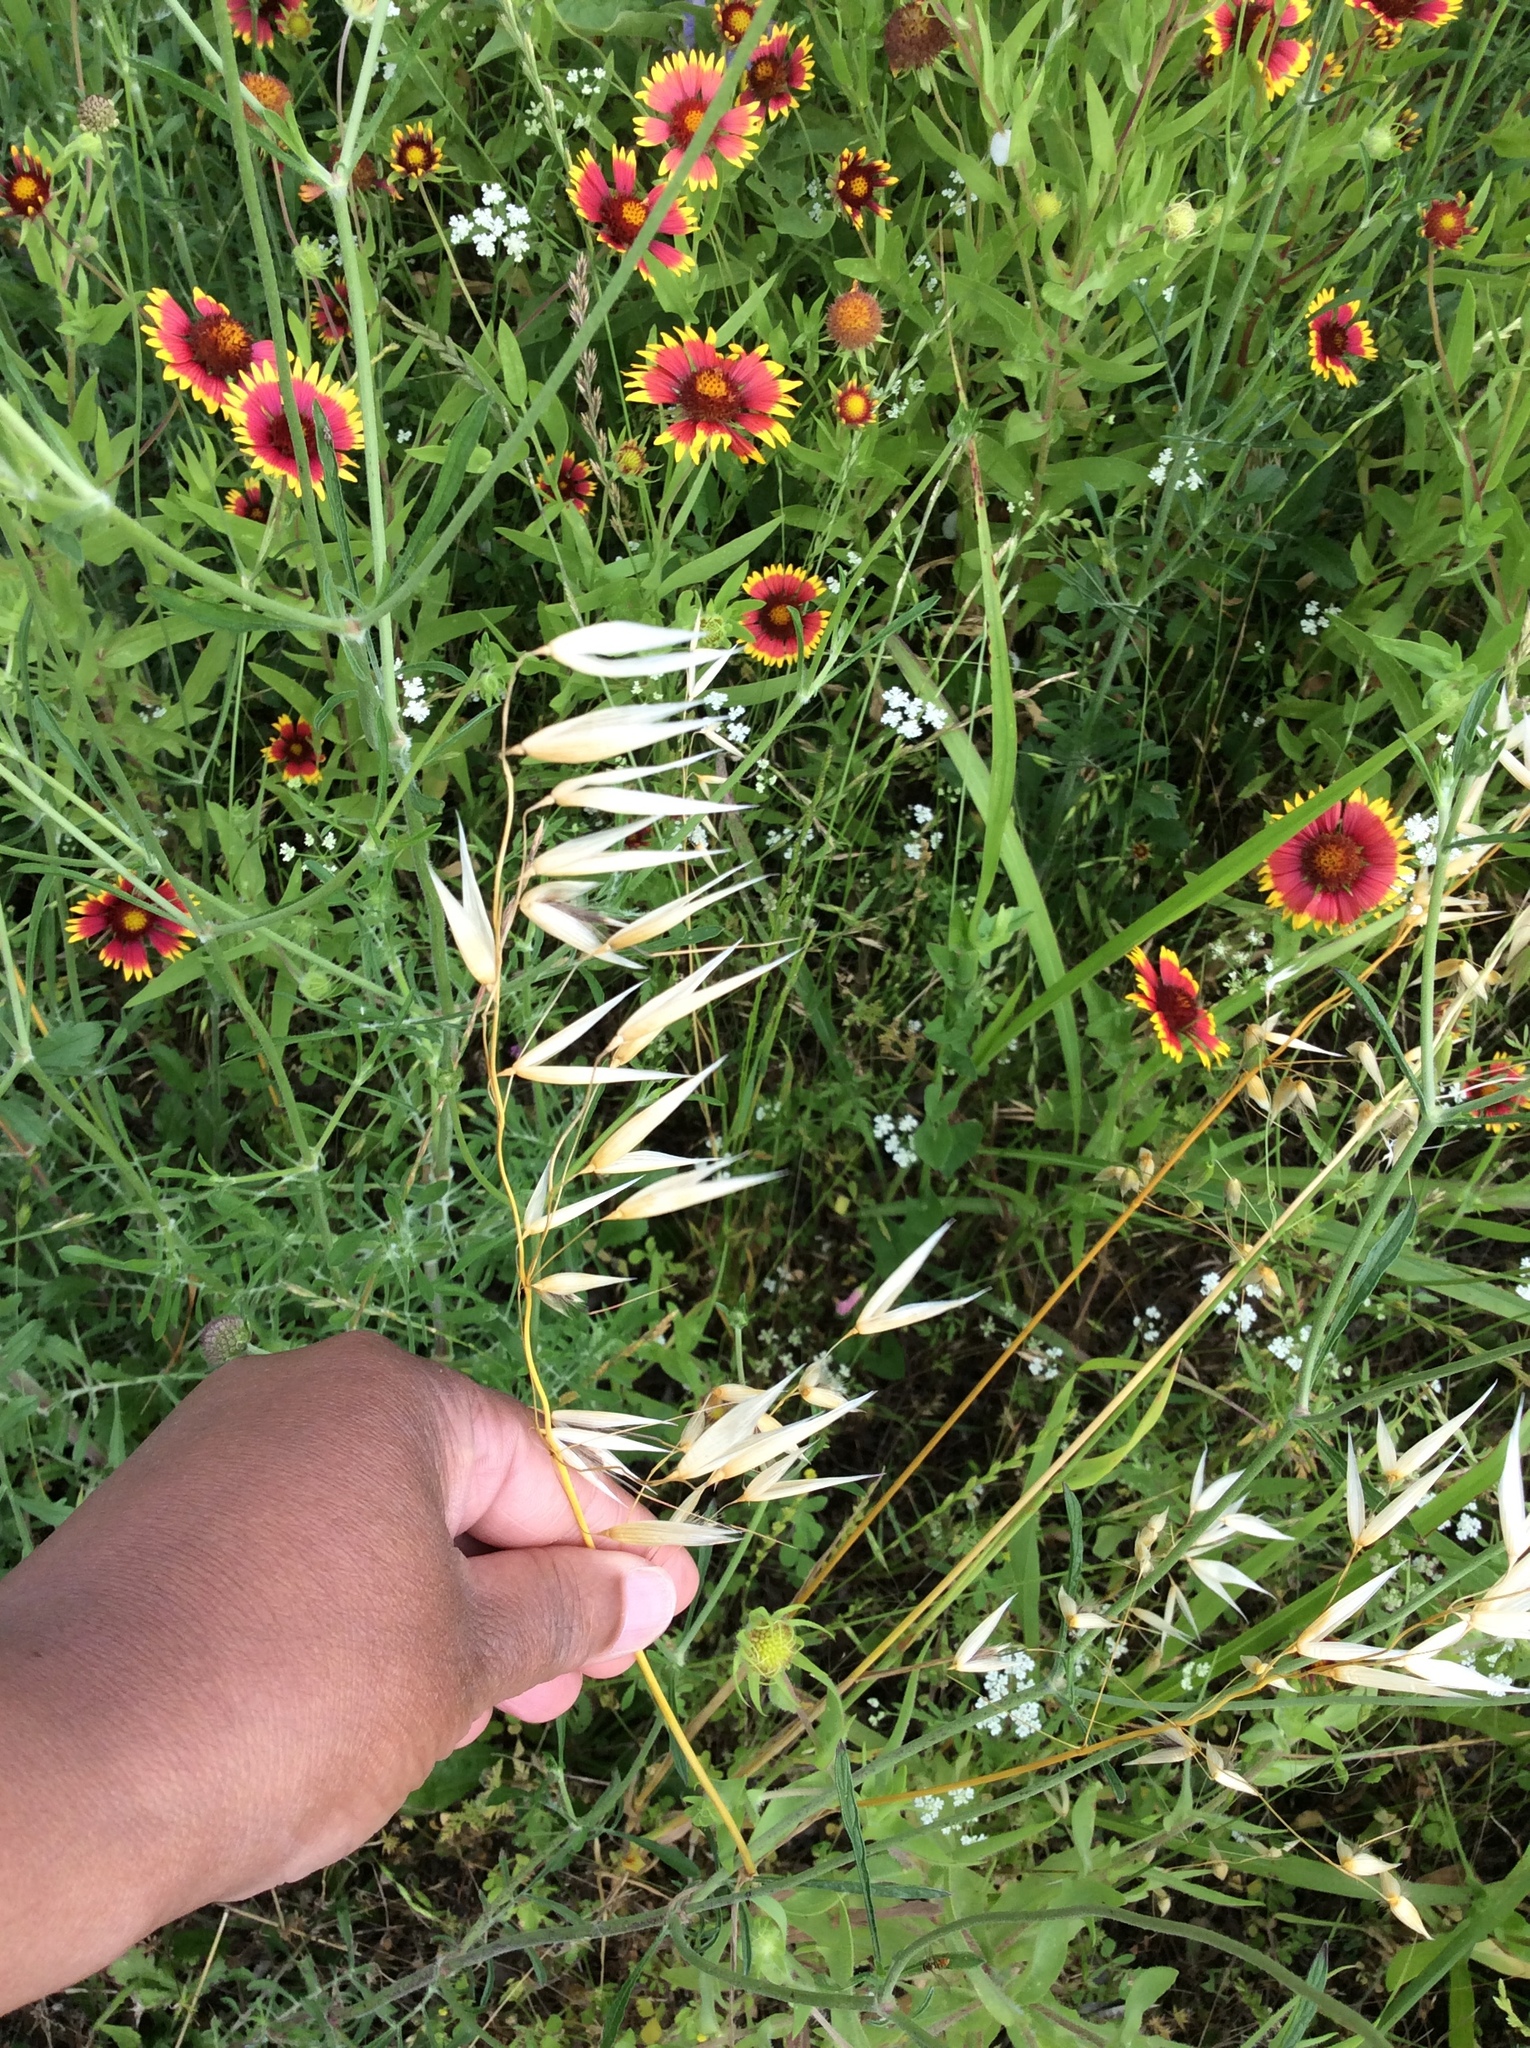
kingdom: Plantae
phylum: Tracheophyta
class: Liliopsida
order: Poales
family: Poaceae
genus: Avena
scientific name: Avena fatua
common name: Wild oat
